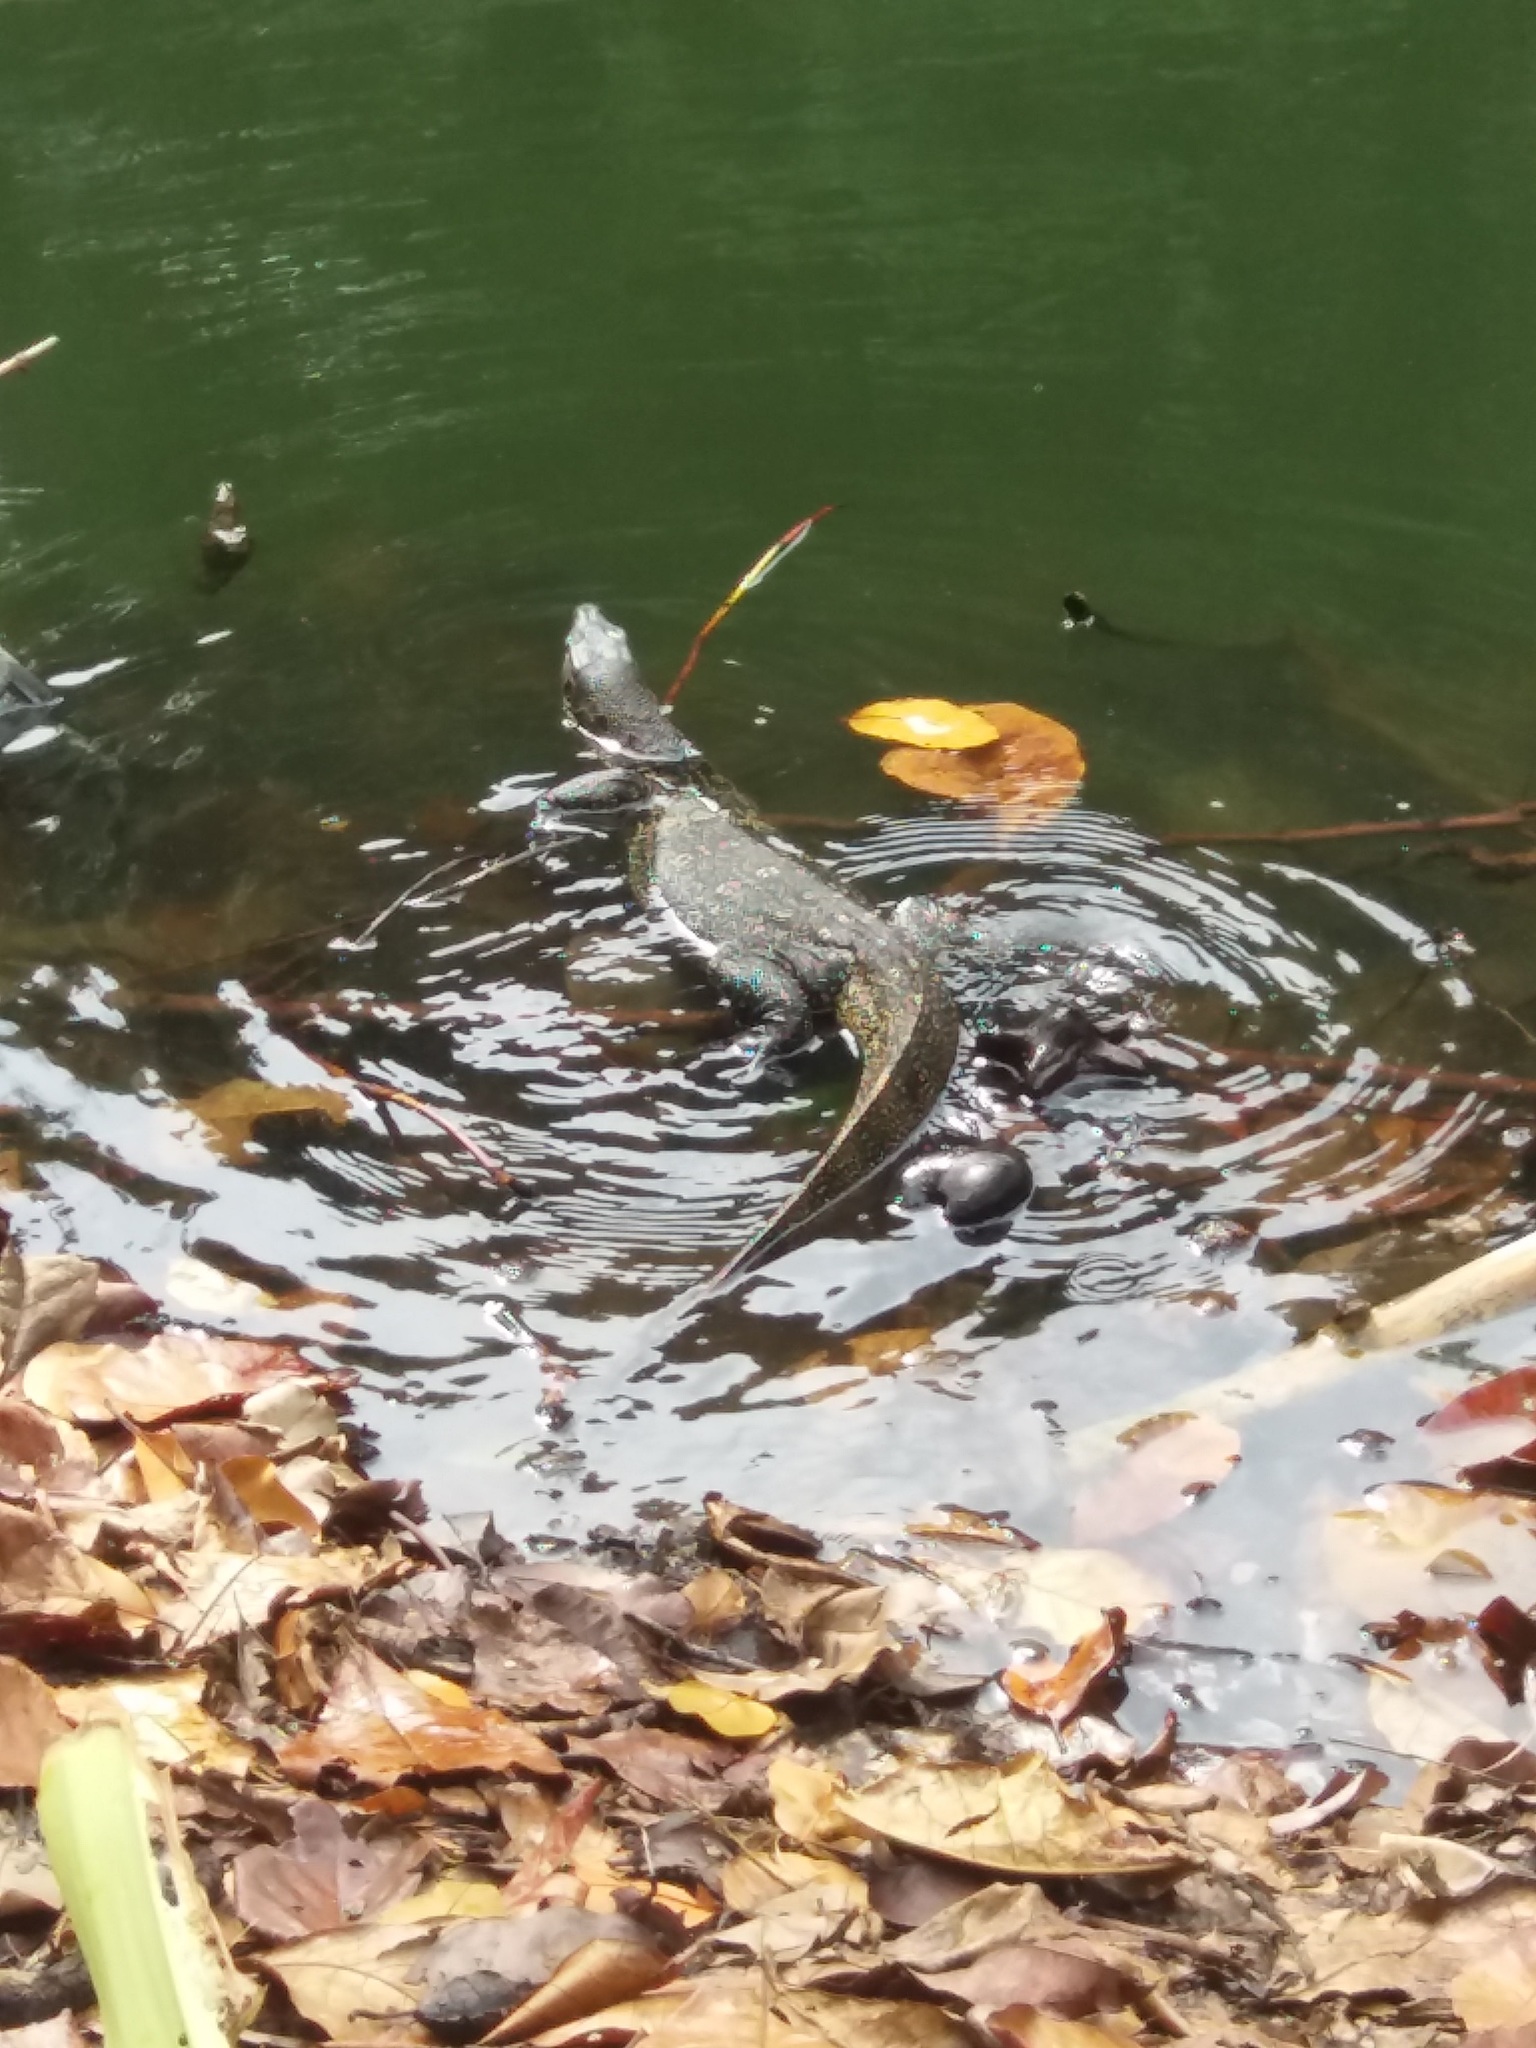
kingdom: Animalia
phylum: Chordata
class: Squamata
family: Varanidae
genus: Varanus
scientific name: Varanus salvator
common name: Common water monitor
